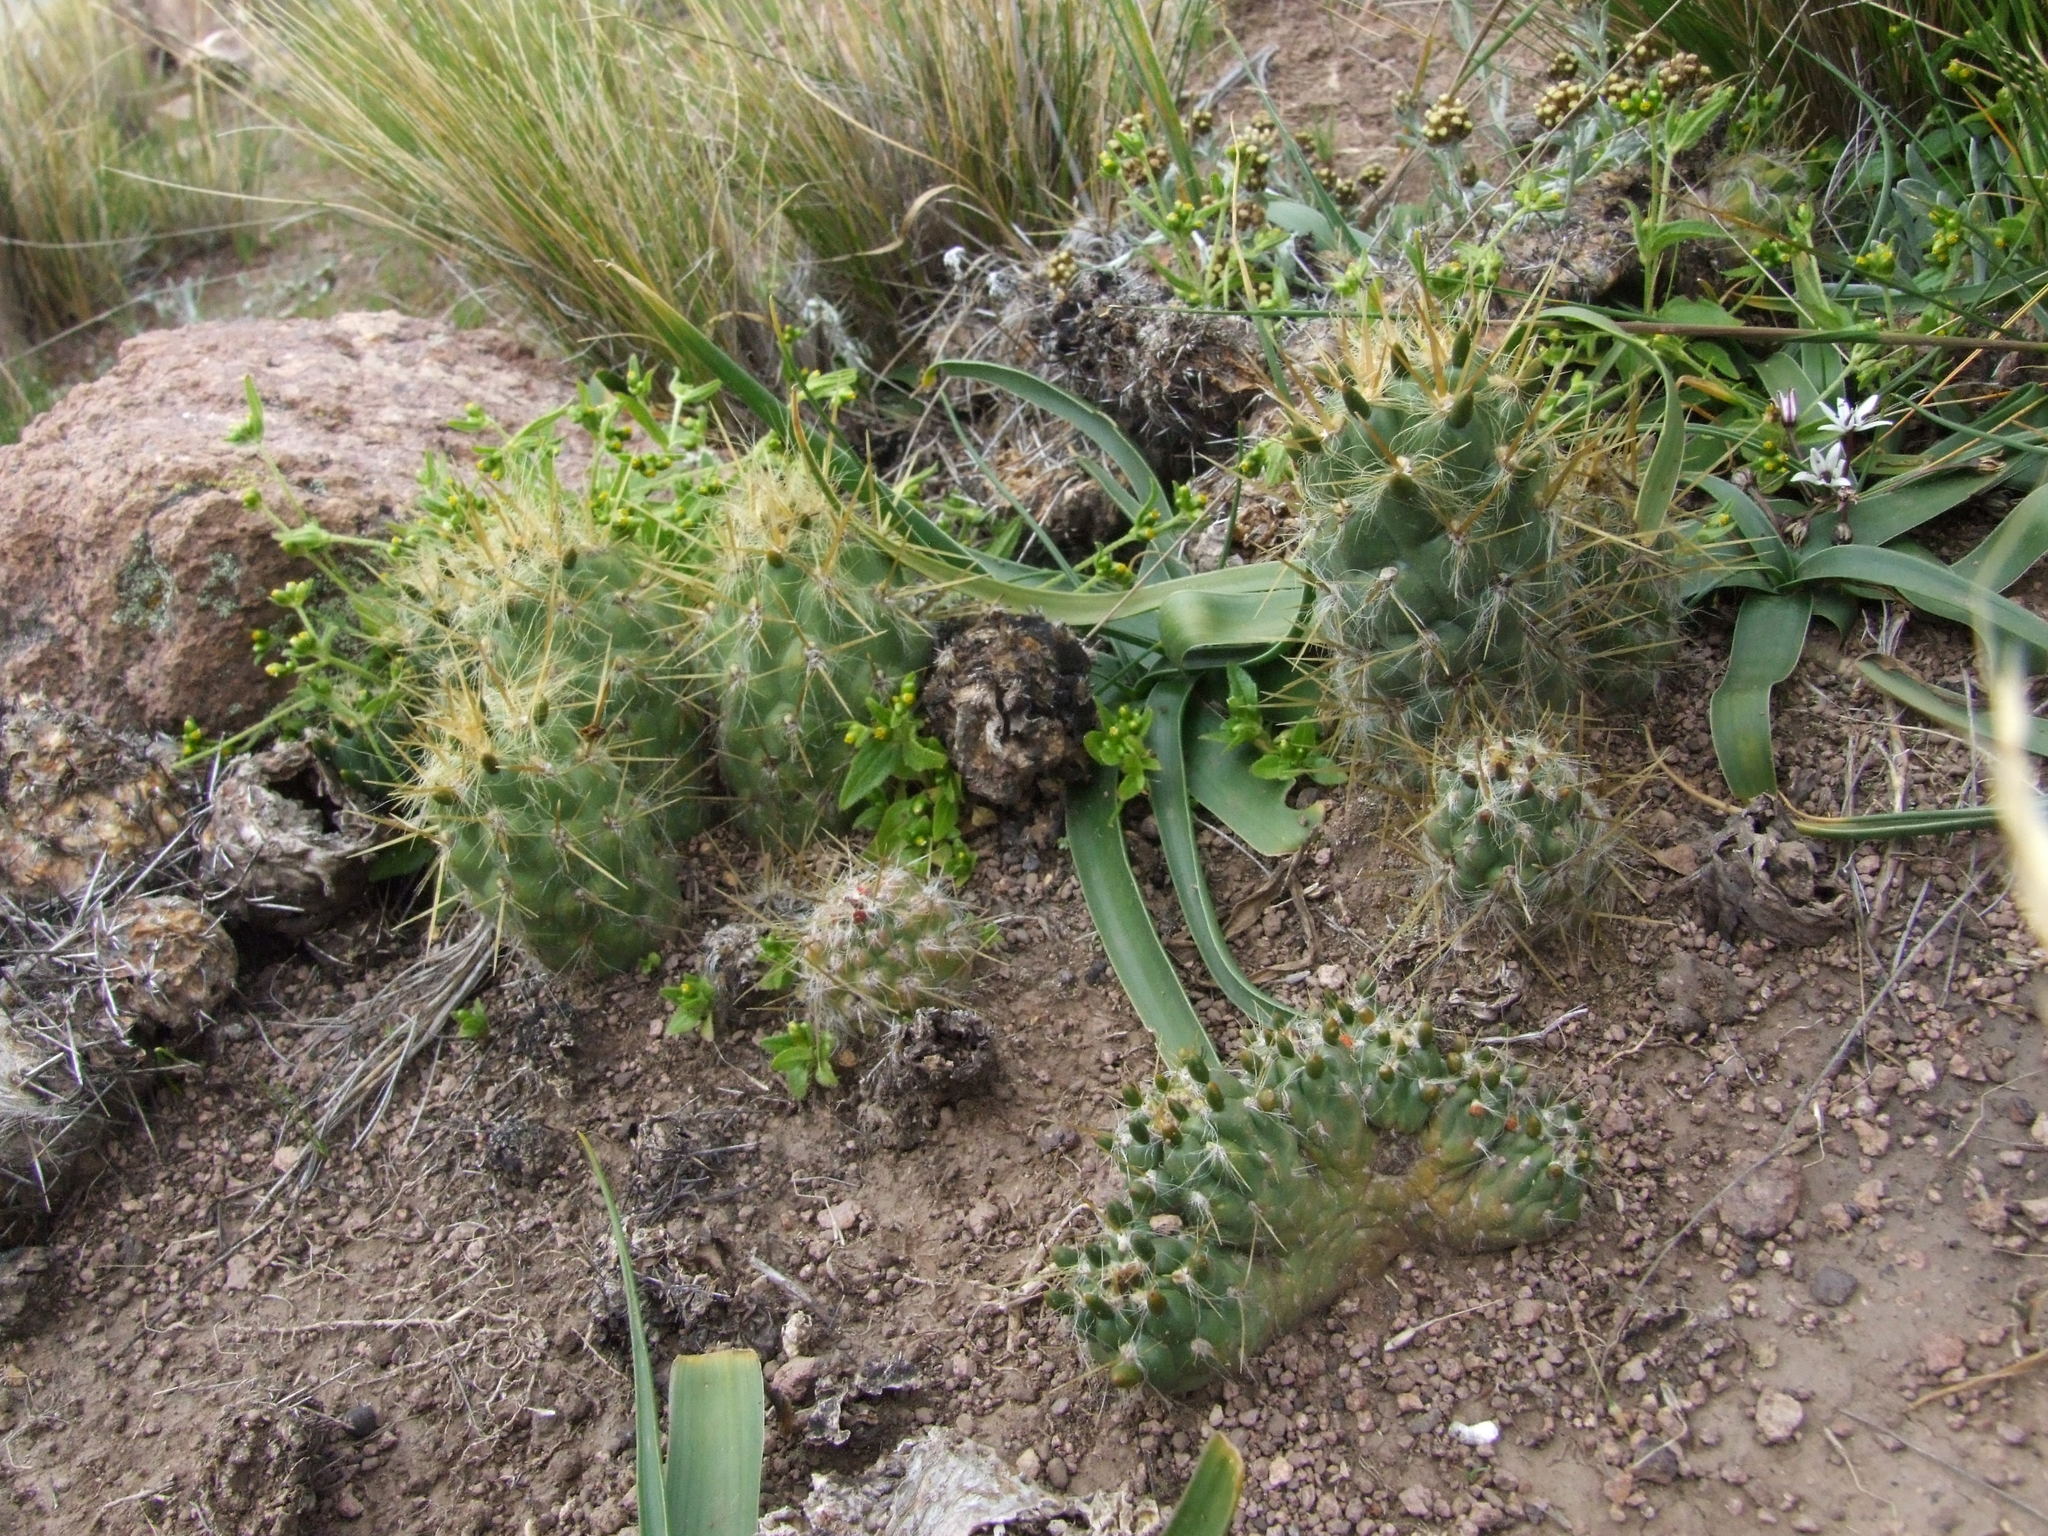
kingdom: Plantae
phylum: Tracheophyta
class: Magnoliopsida
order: Caryophyllales
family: Cactaceae
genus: Austrocylindropuntia
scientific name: Austrocylindropuntia floccosa
